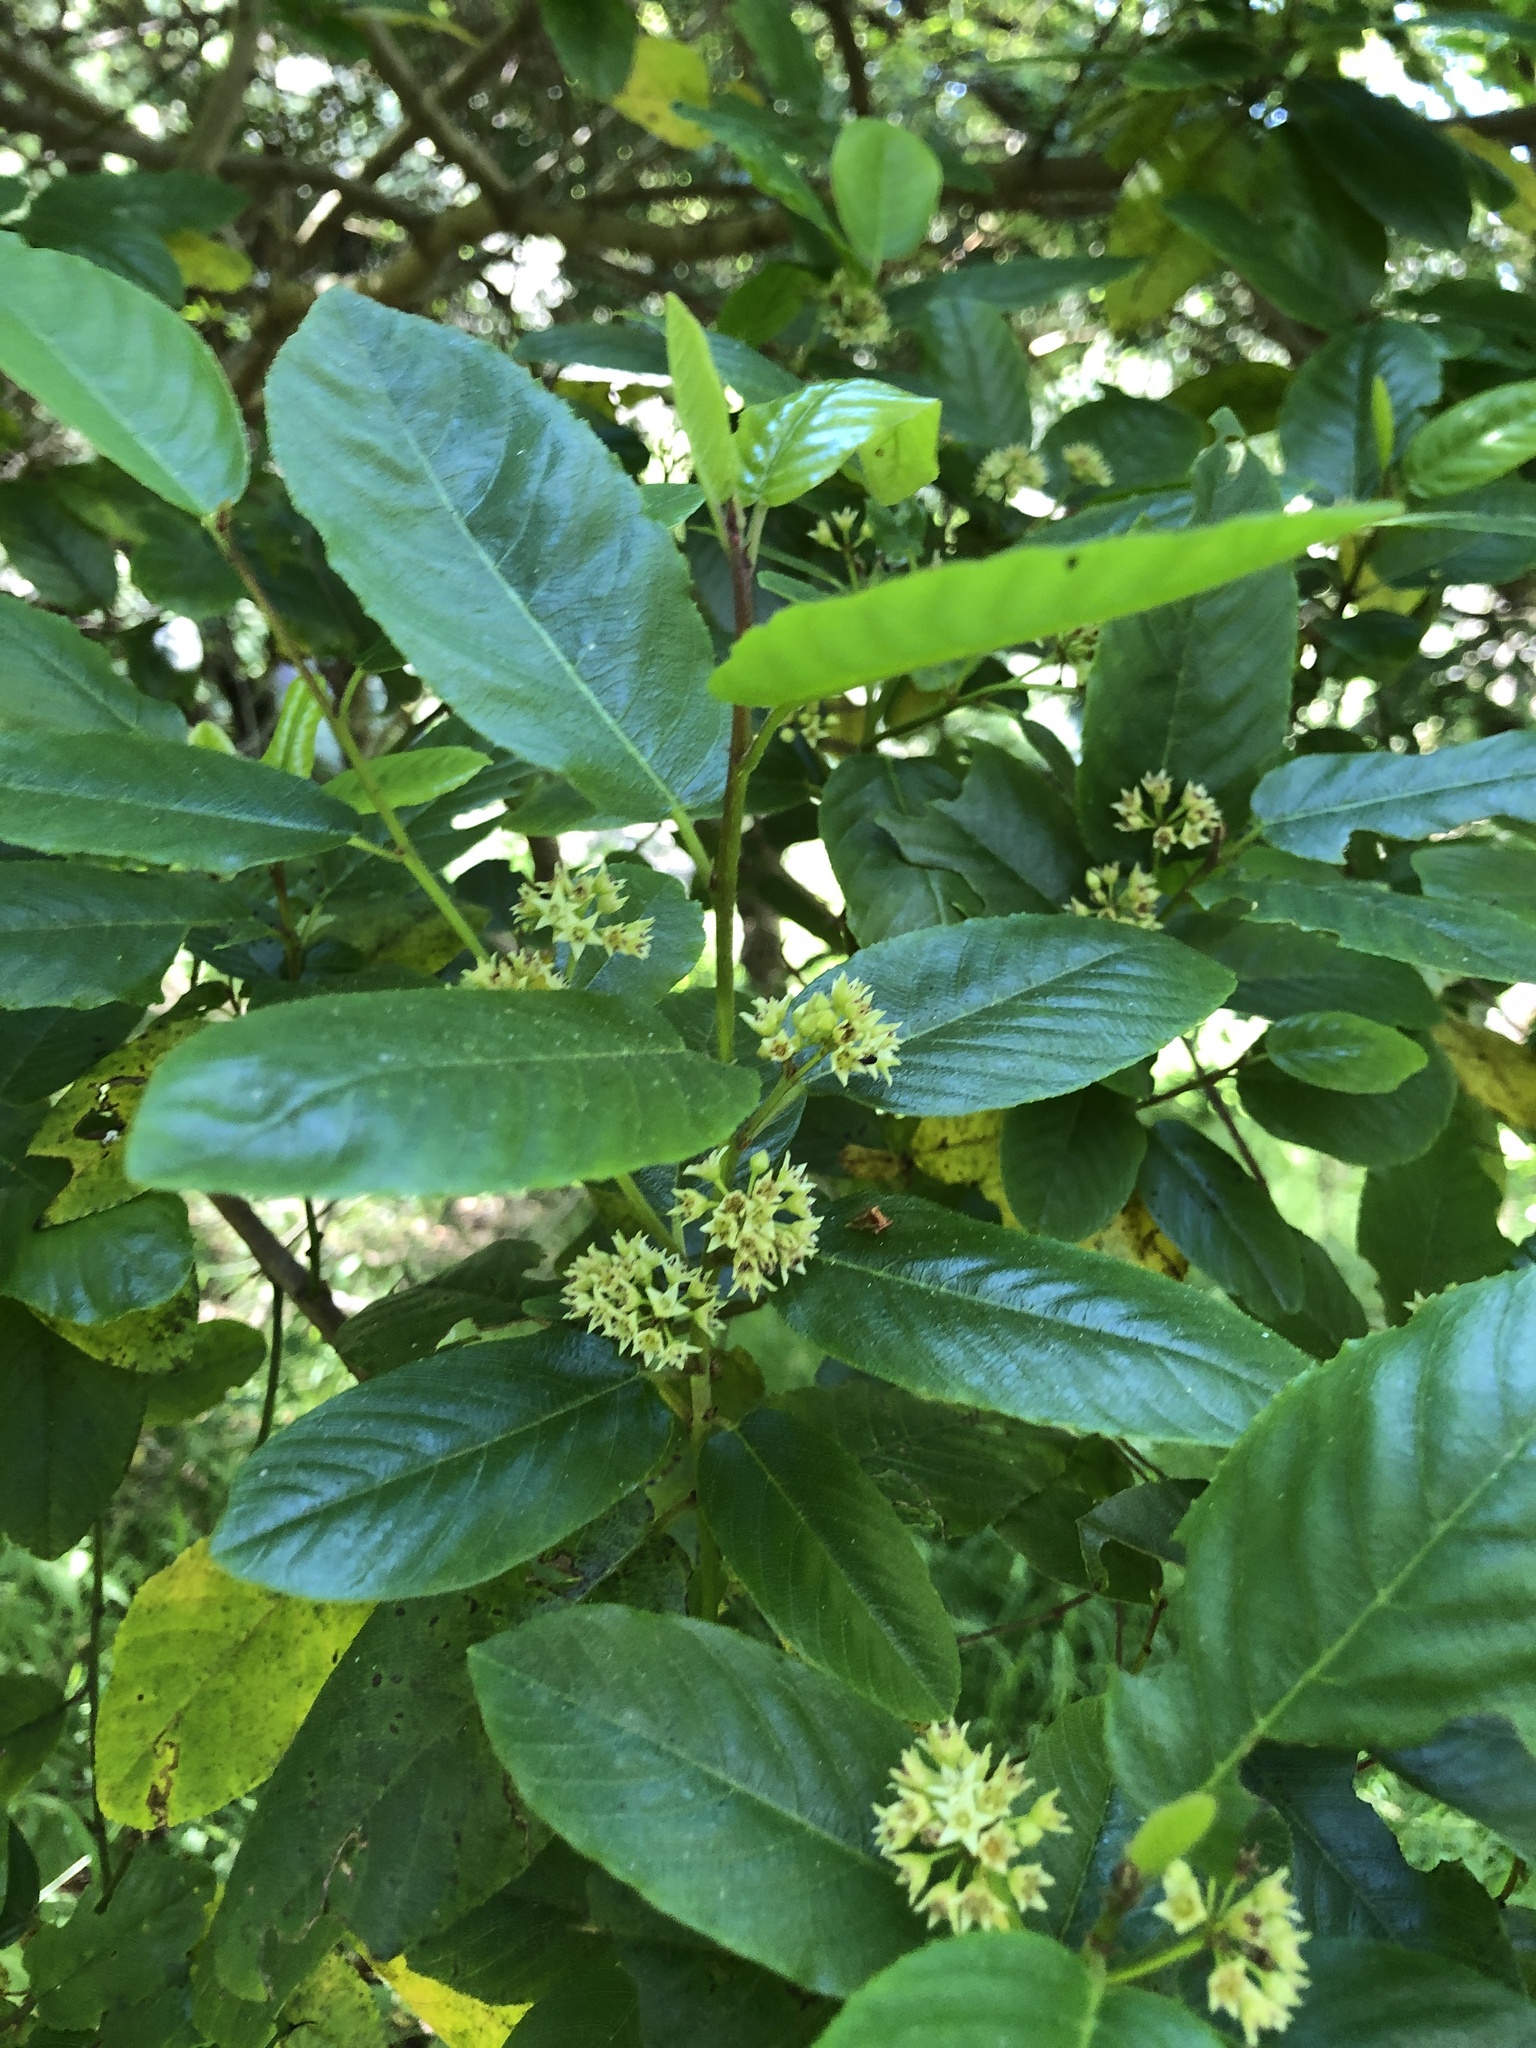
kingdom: Plantae
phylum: Tracheophyta
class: Magnoliopsida
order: Rosales
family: Rhamnaceae
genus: Frangula
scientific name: Frangula californica
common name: California buckthorn
